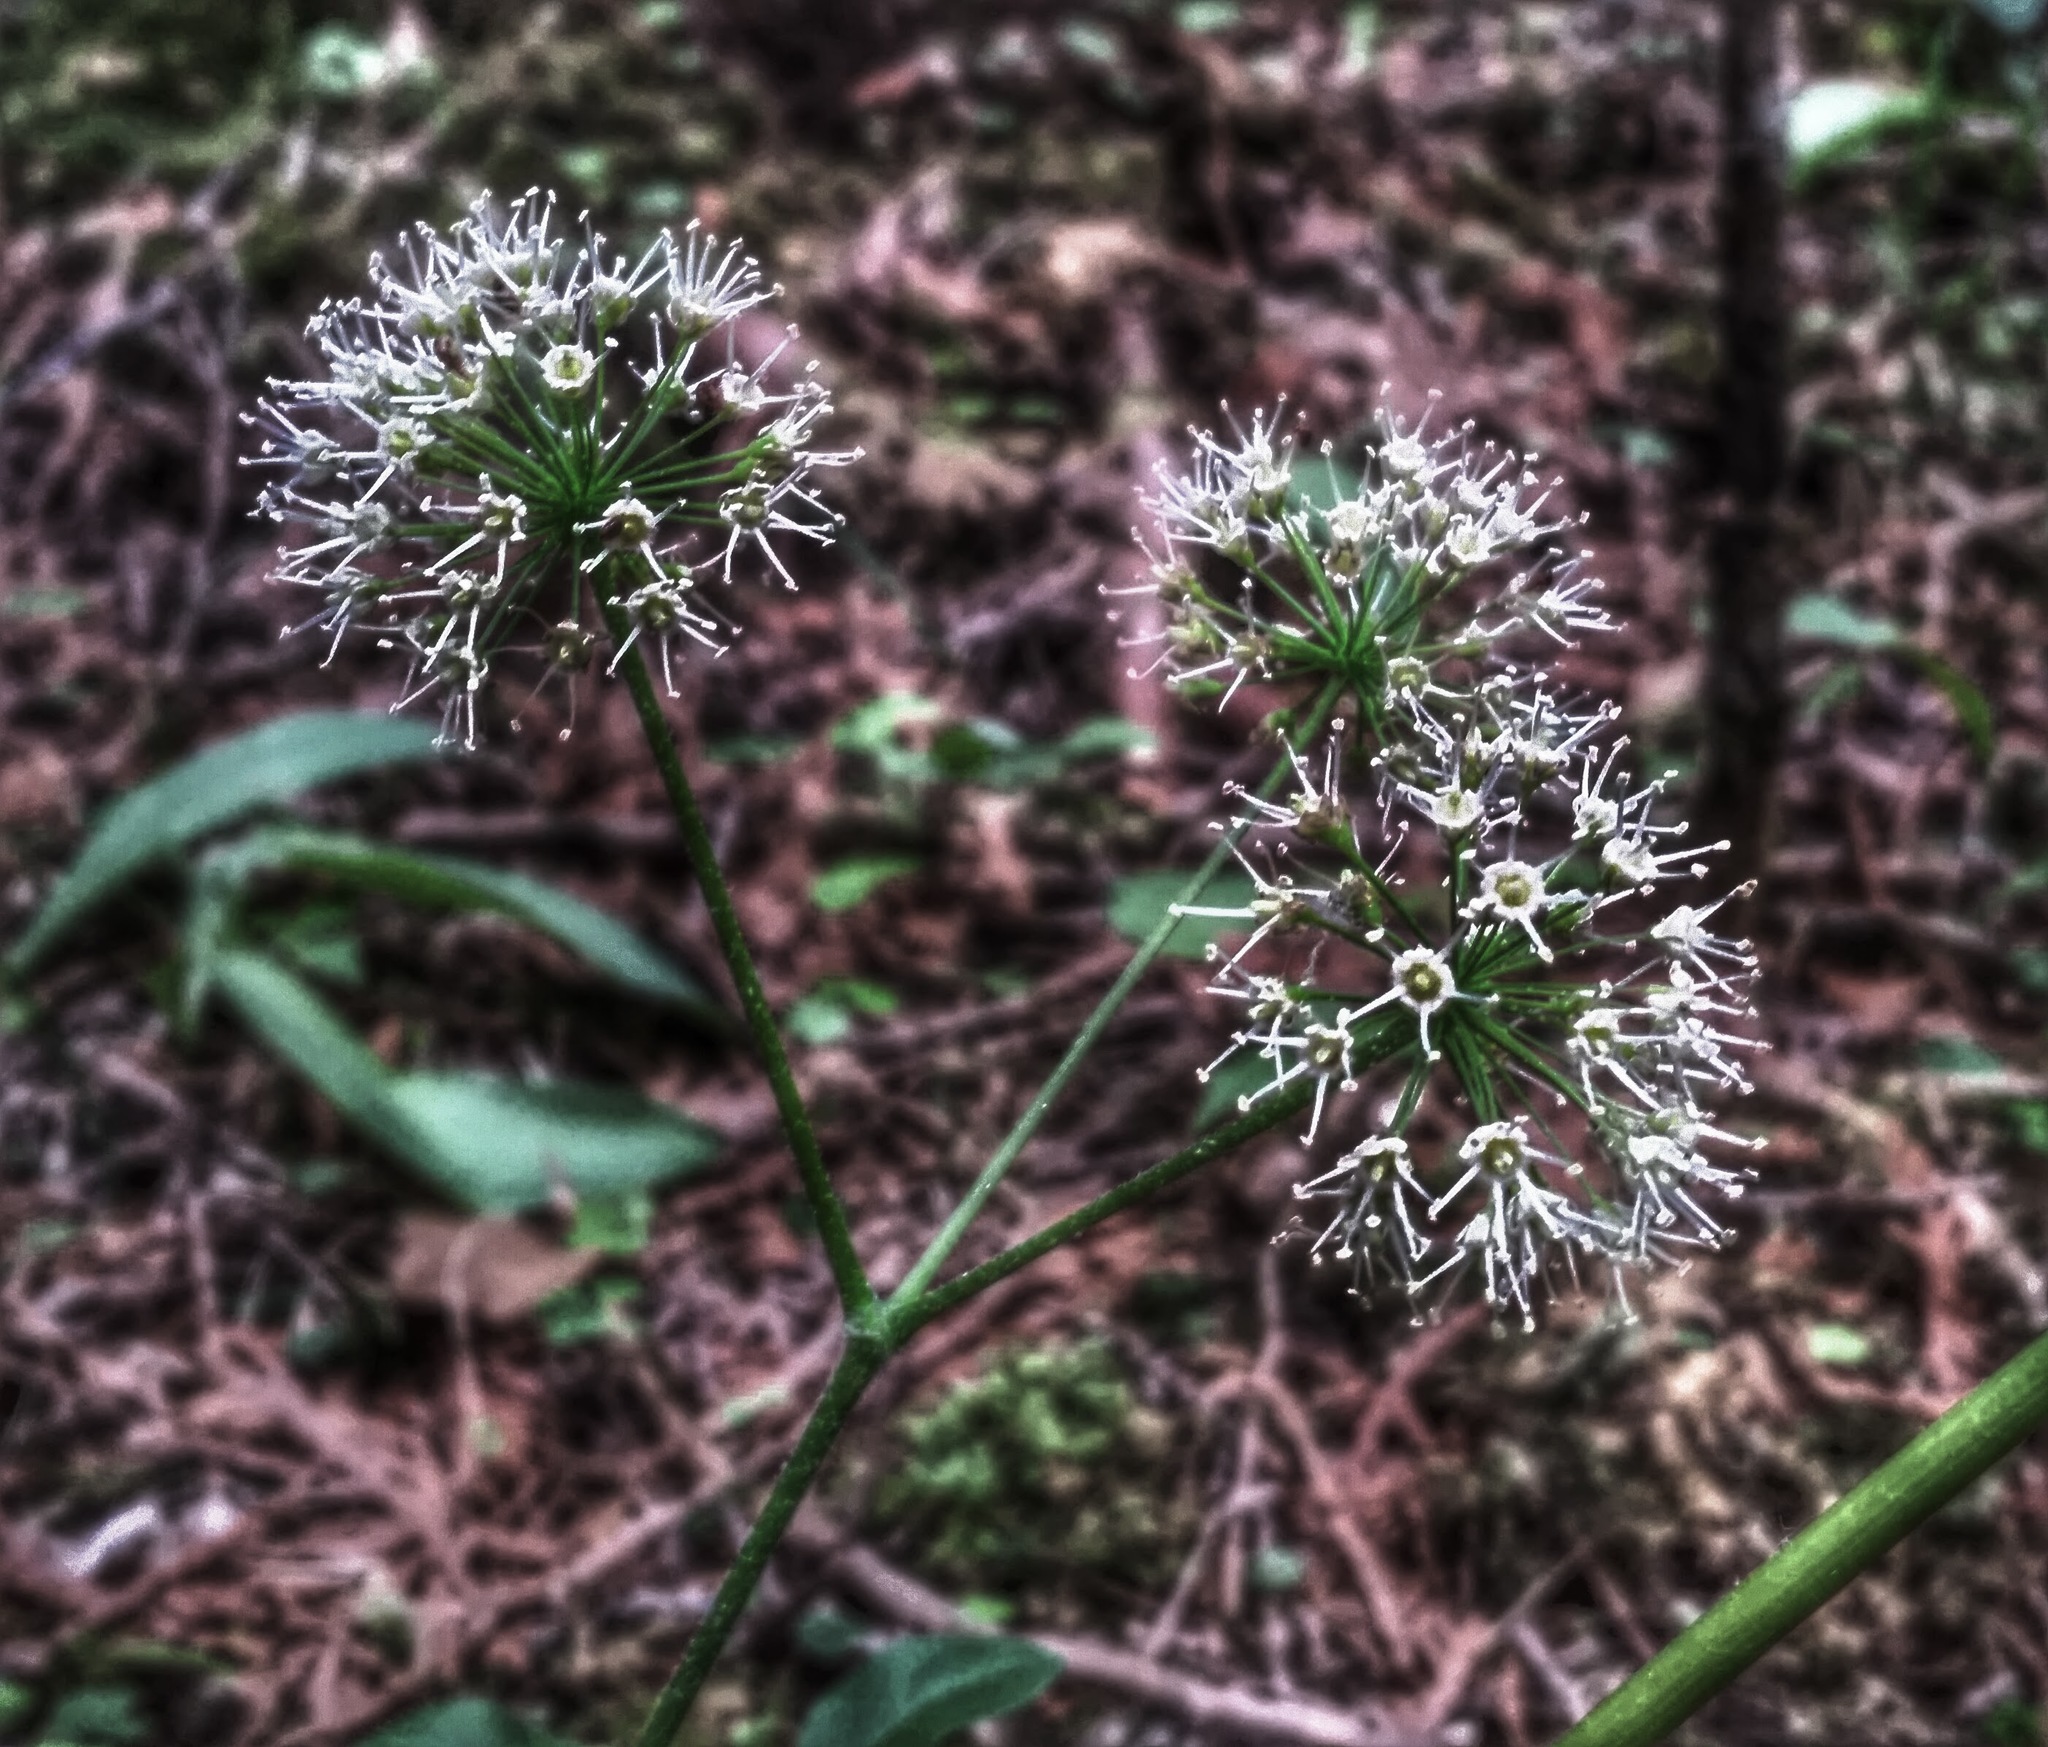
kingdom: Plantae
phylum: Tracheophyta
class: Magnoliopsida
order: Apiales
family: Araliaceae
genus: Aralia
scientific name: Aralia nudicaulis
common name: Wild sarsaparilla
